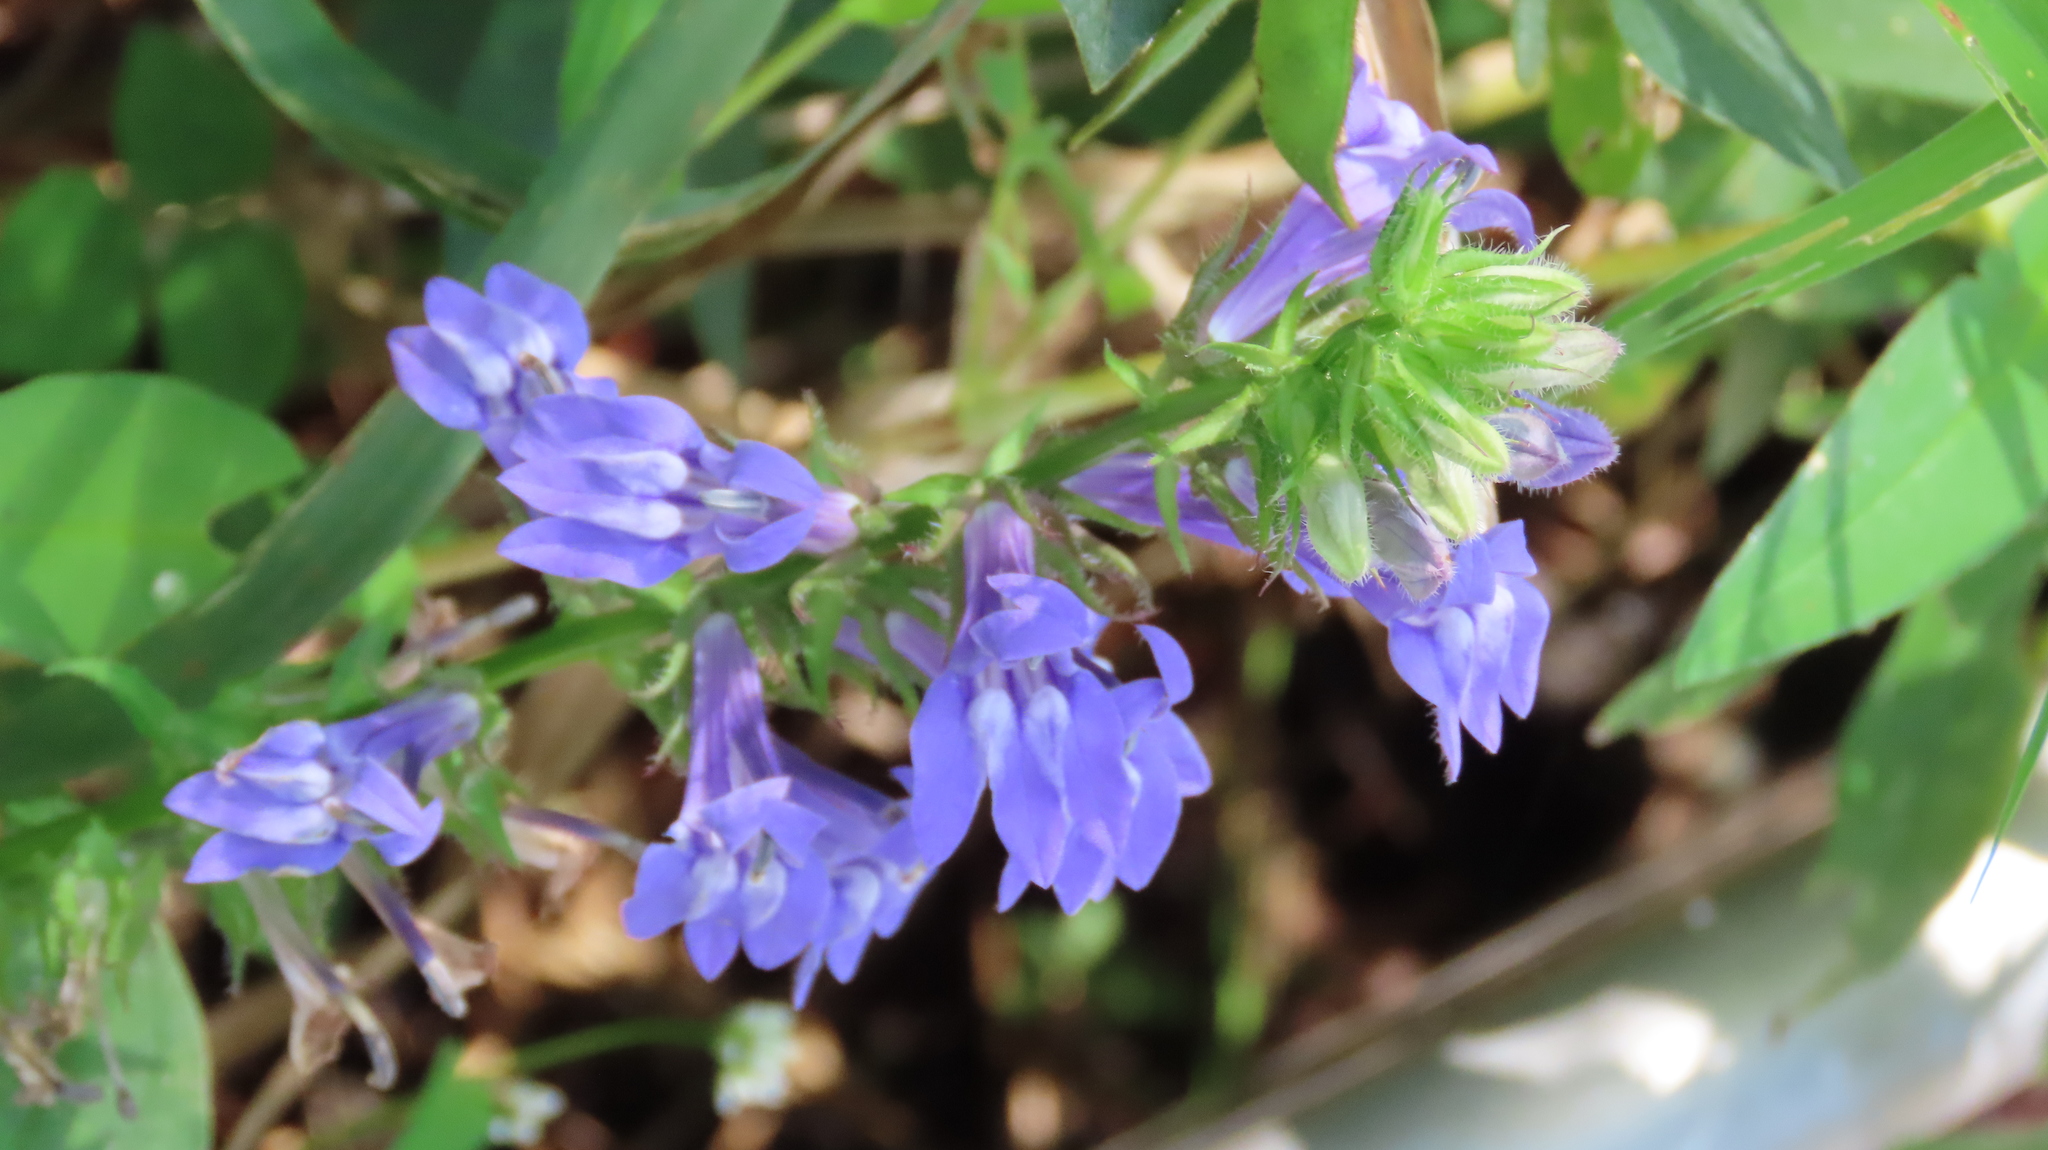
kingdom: Plantae
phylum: Tracheophyta
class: Magnoliopsida
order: Asterales
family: Campanulaceae
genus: Lobelia
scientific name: Lobelia siphilitica
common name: Great lobelia
